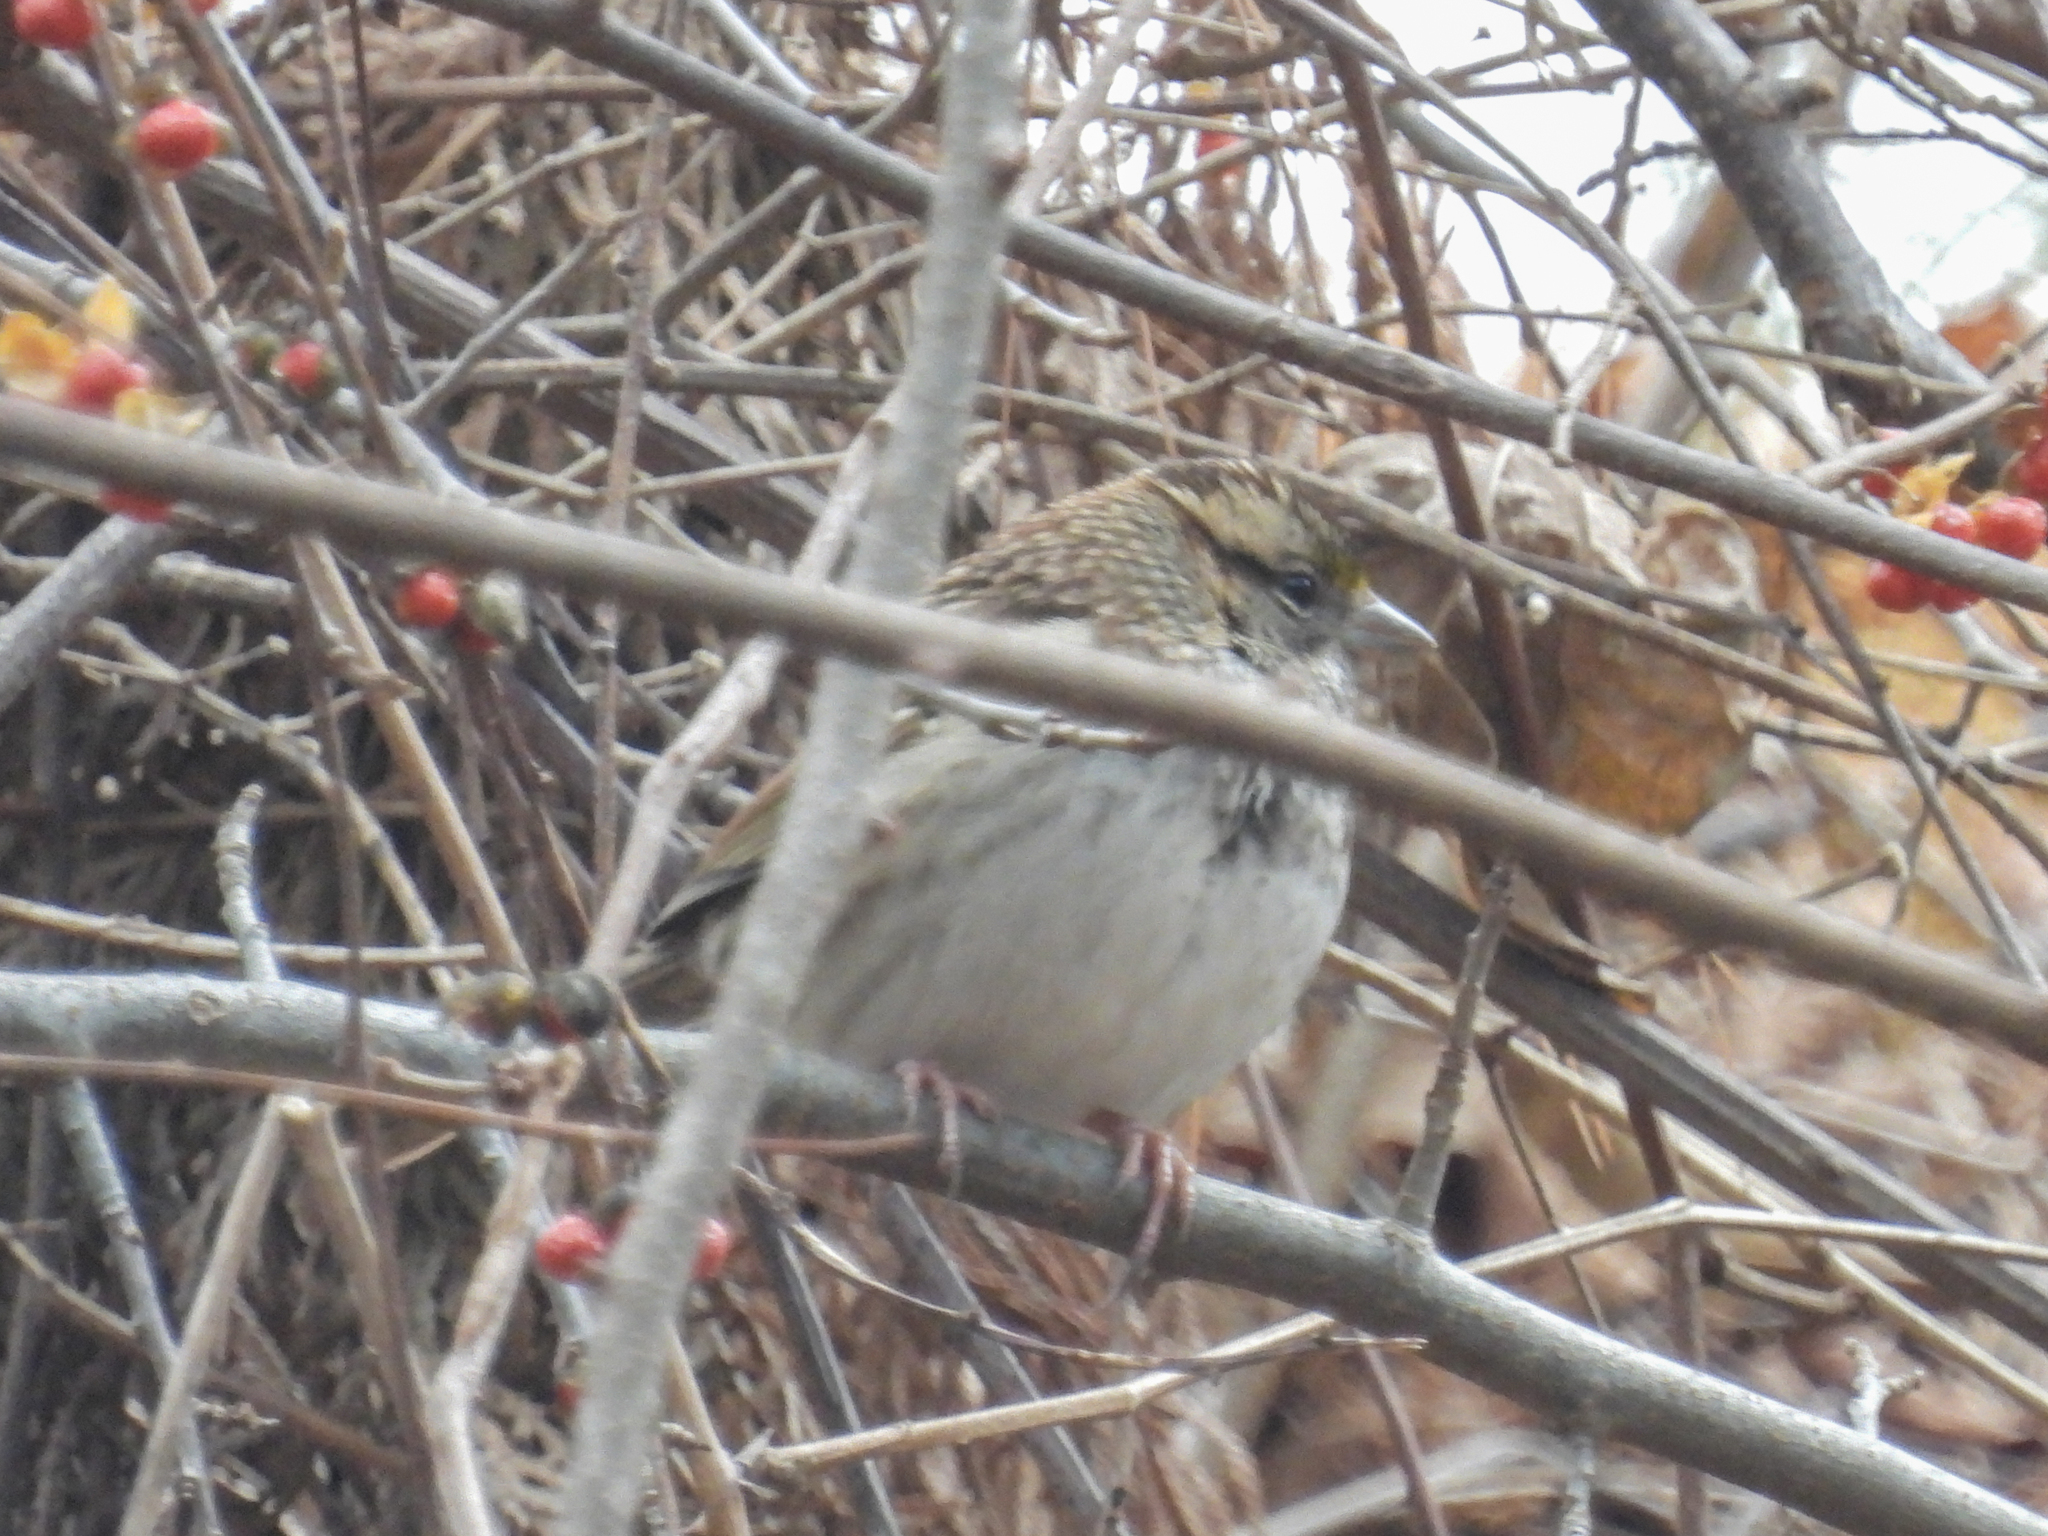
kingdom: Animalia
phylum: Chordata
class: Aves
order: Passeriformes
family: Passerellidae
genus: Zonotrichia
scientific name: Zonotrichia albicollis
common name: White-throated sparrow
